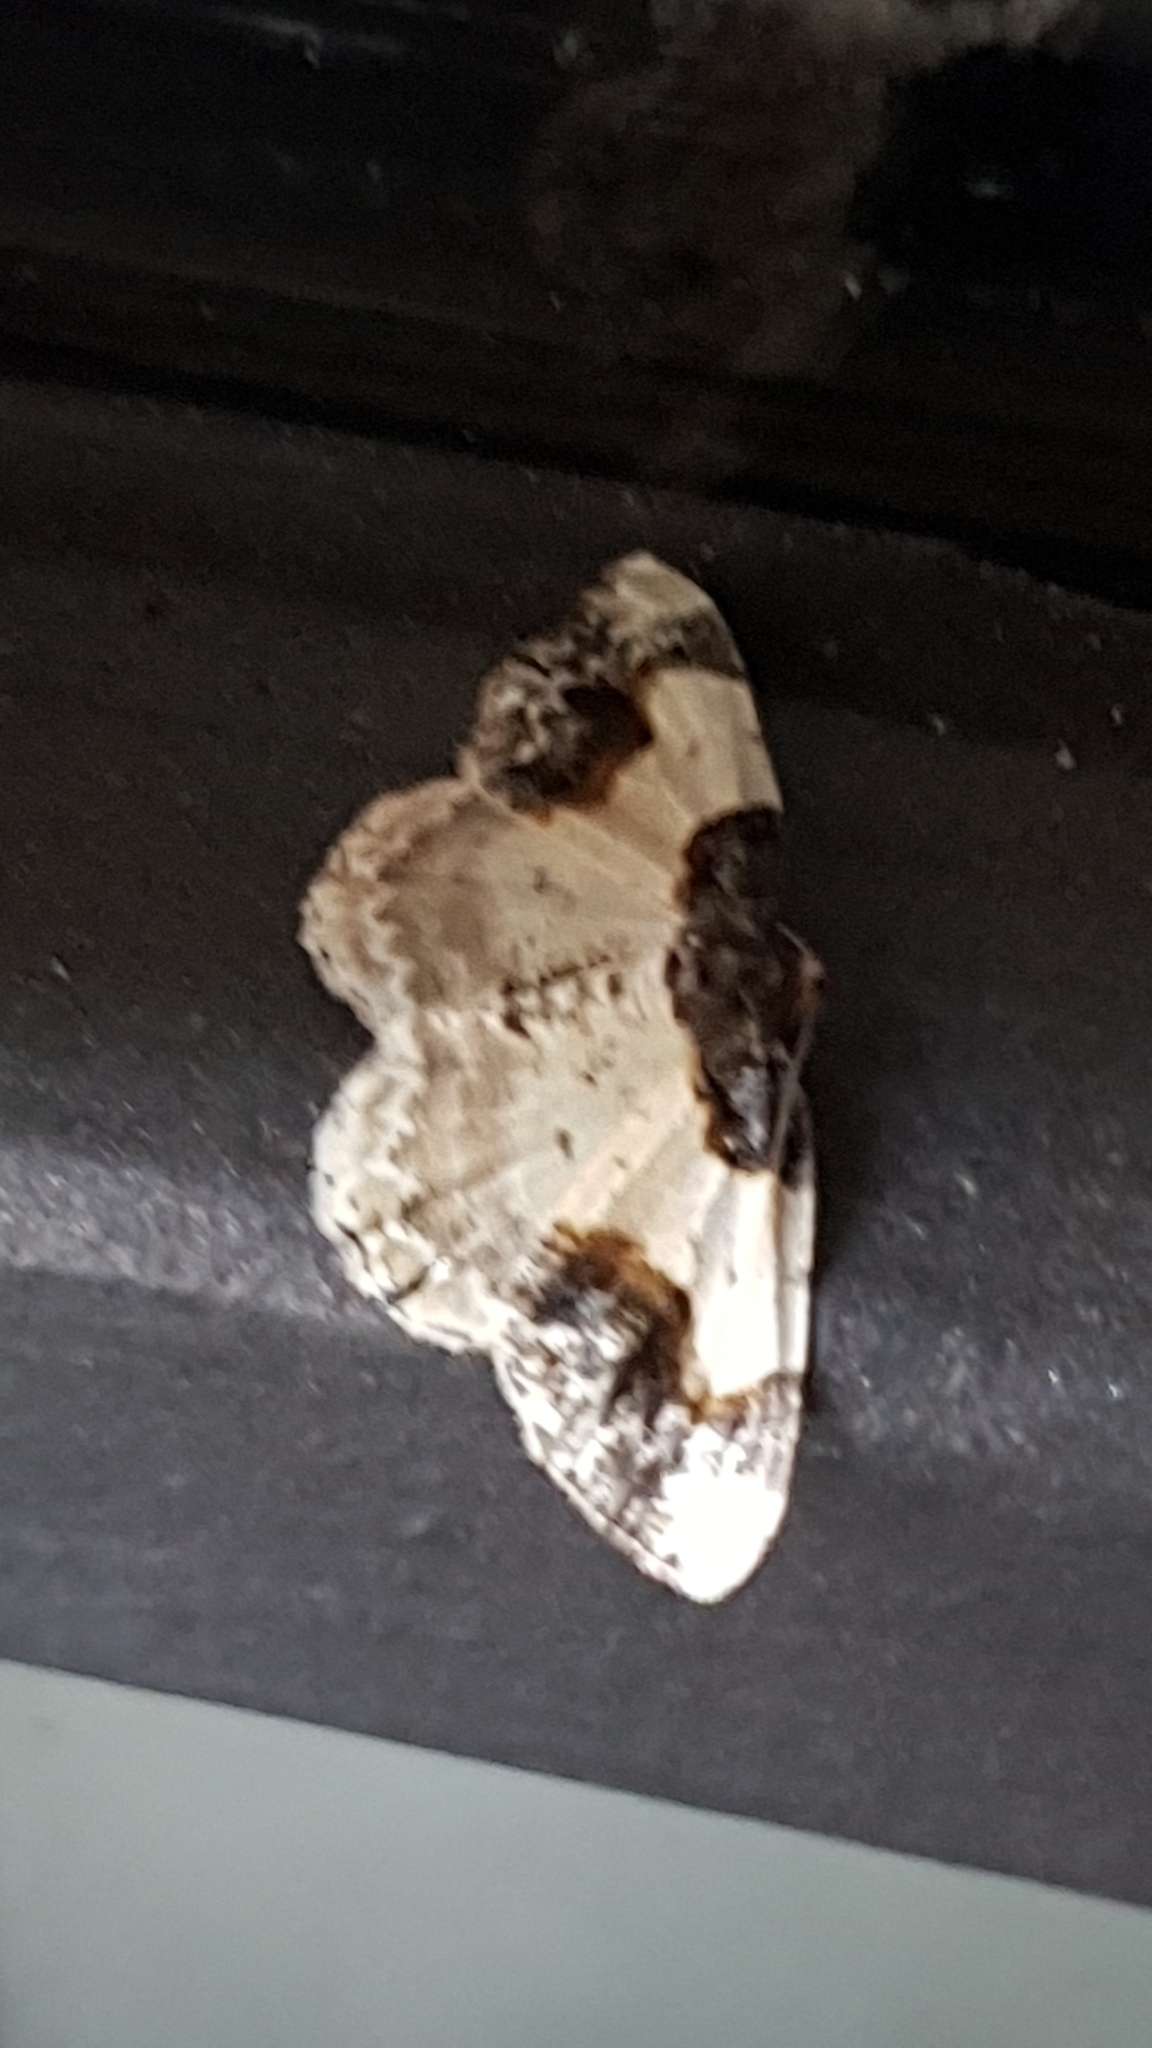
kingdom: Animalia
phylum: Arthropoda
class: Insecta
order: Lepidoptera
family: Geometridae
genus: Ligdia
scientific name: Ligdia adustata
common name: Scorched carpet
